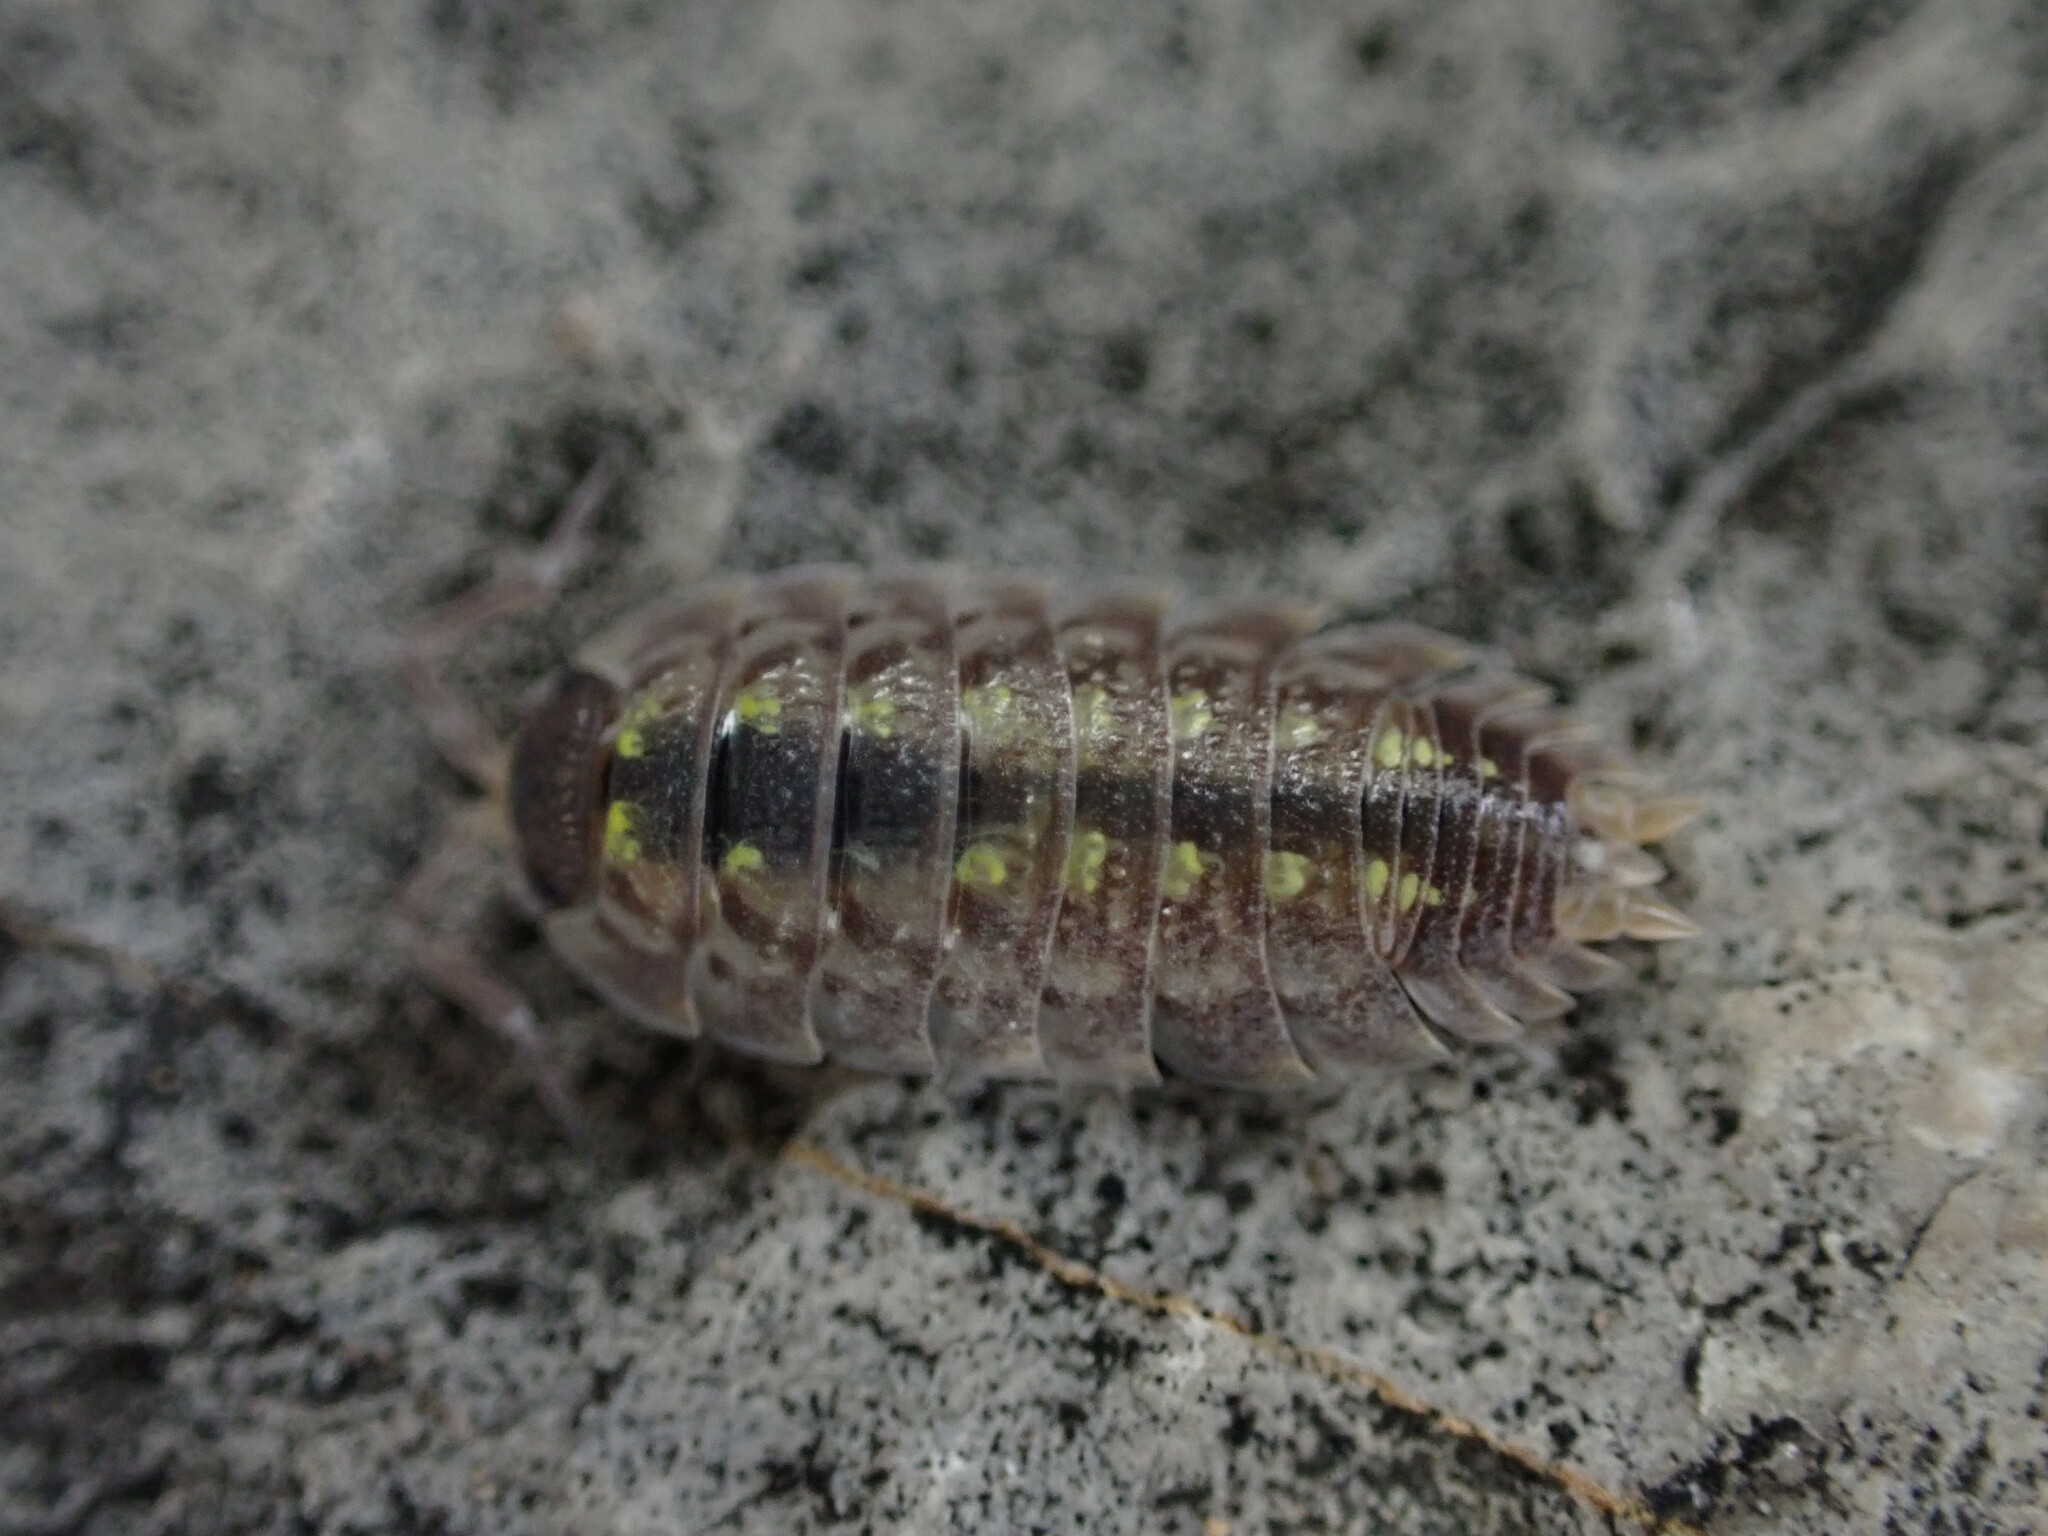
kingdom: Animalia
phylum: Arthropoda
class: Malacostraca
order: Isopoda
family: Porcellionidae
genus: Porcellio
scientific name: Porcellio spinicornis
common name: Painted woodlouse
